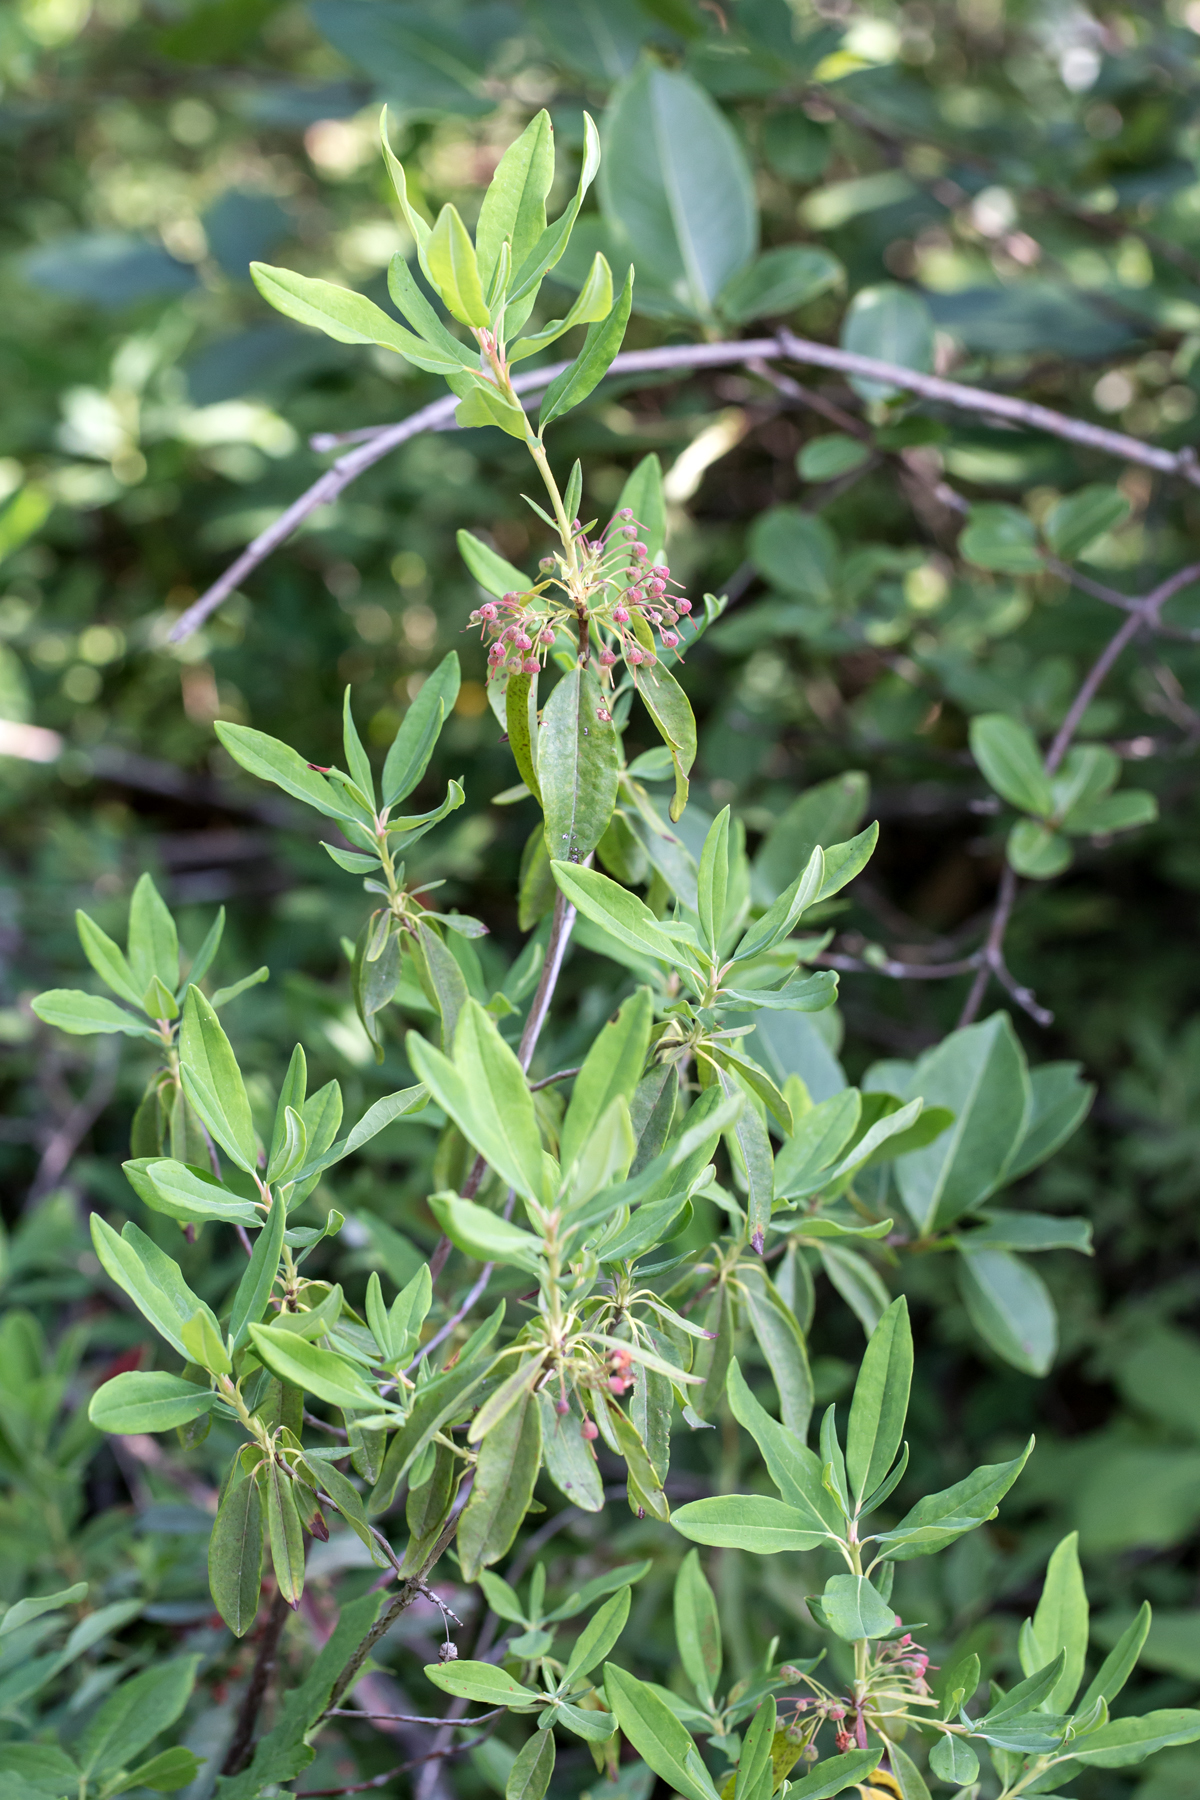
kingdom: Plantae
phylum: Tracheophyta
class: Magnoliopsida
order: Ericales
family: Ericaceae
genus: Kalmia
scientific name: Kalmia angustifolia
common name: Sheep-laurel
